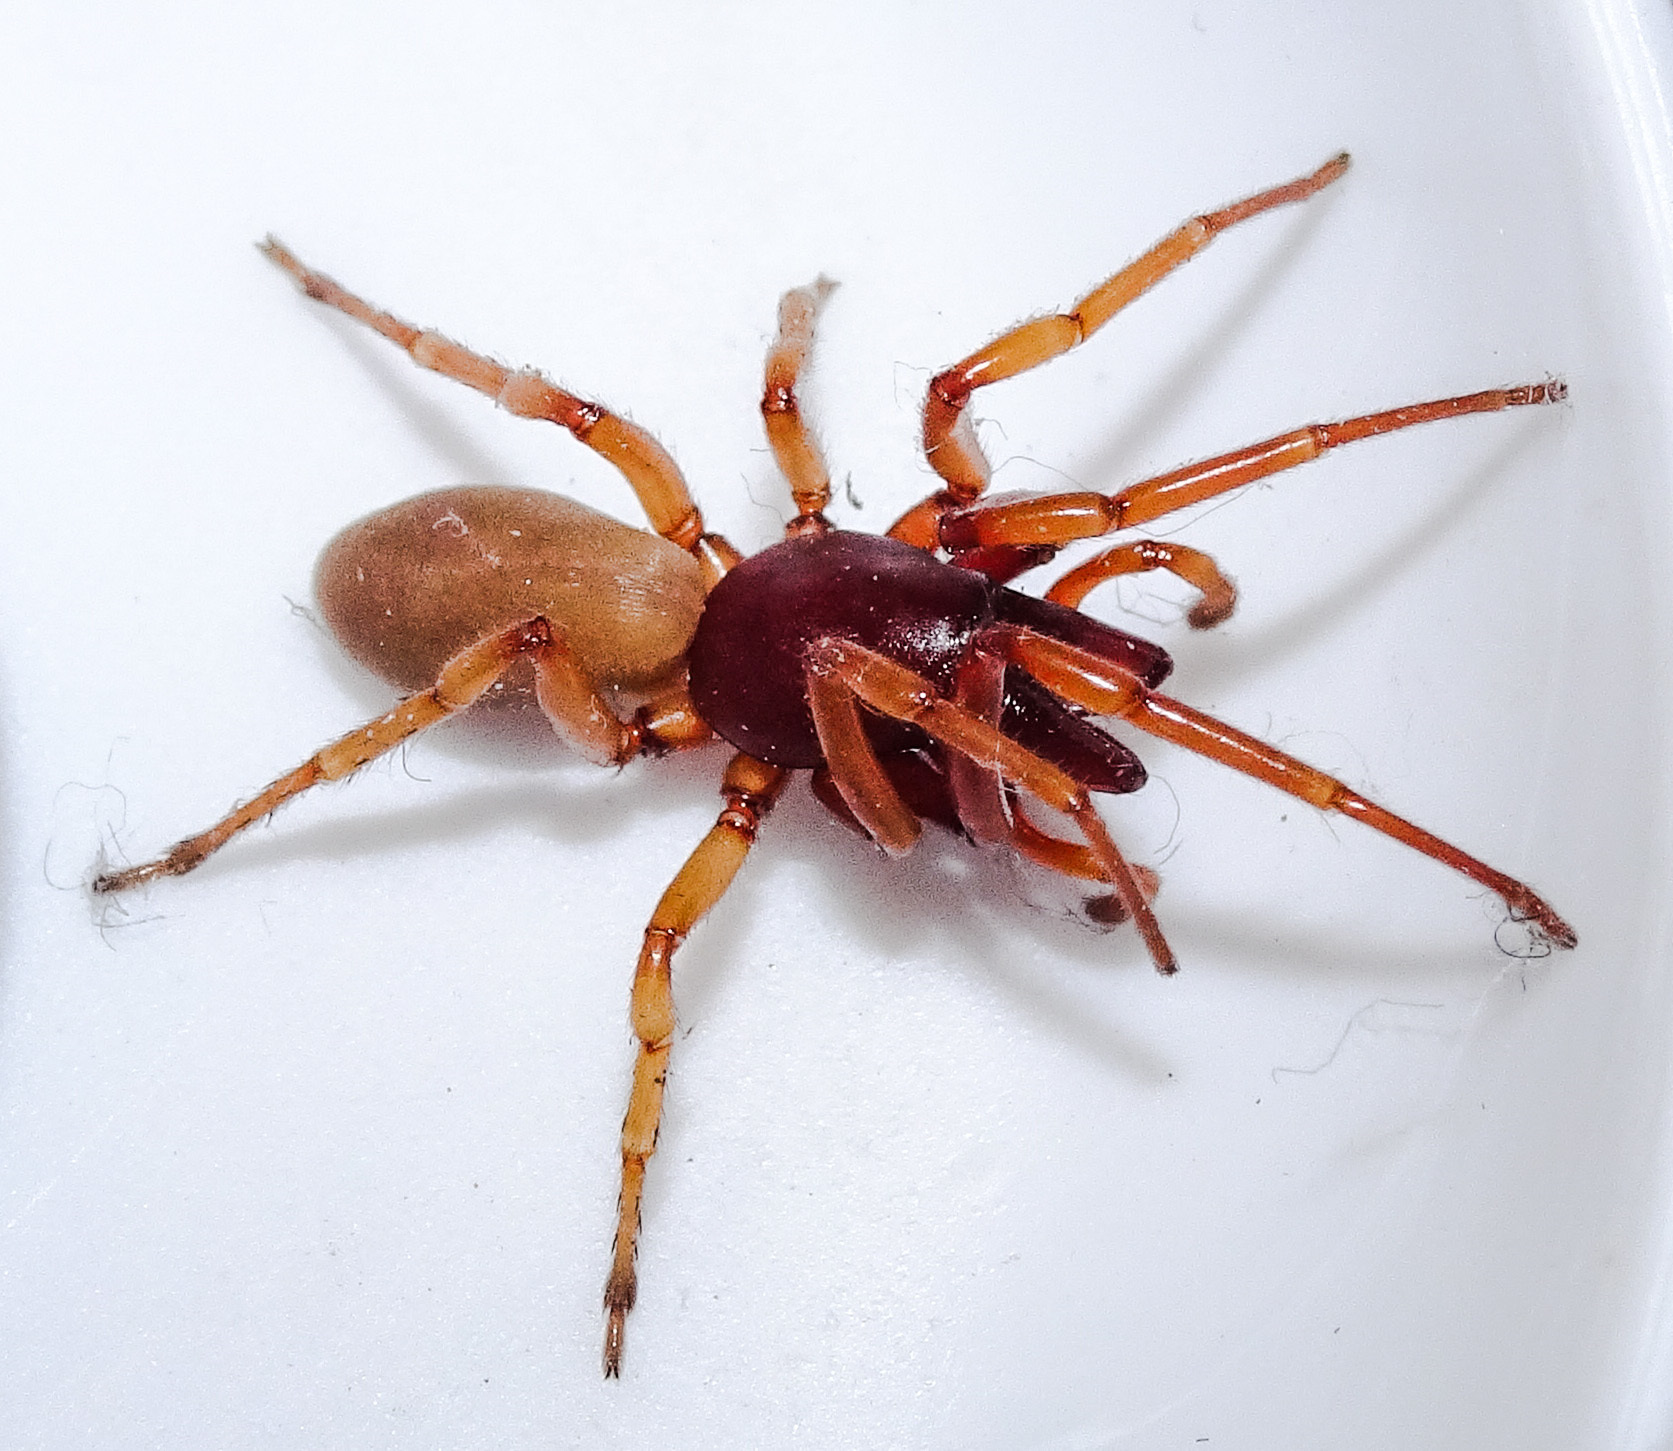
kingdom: Animalia
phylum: Arthropoda
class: Arachnida
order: Araneae
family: Dysderidae
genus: Dysdera
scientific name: Dysdera crocata
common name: Woodlouse spider
